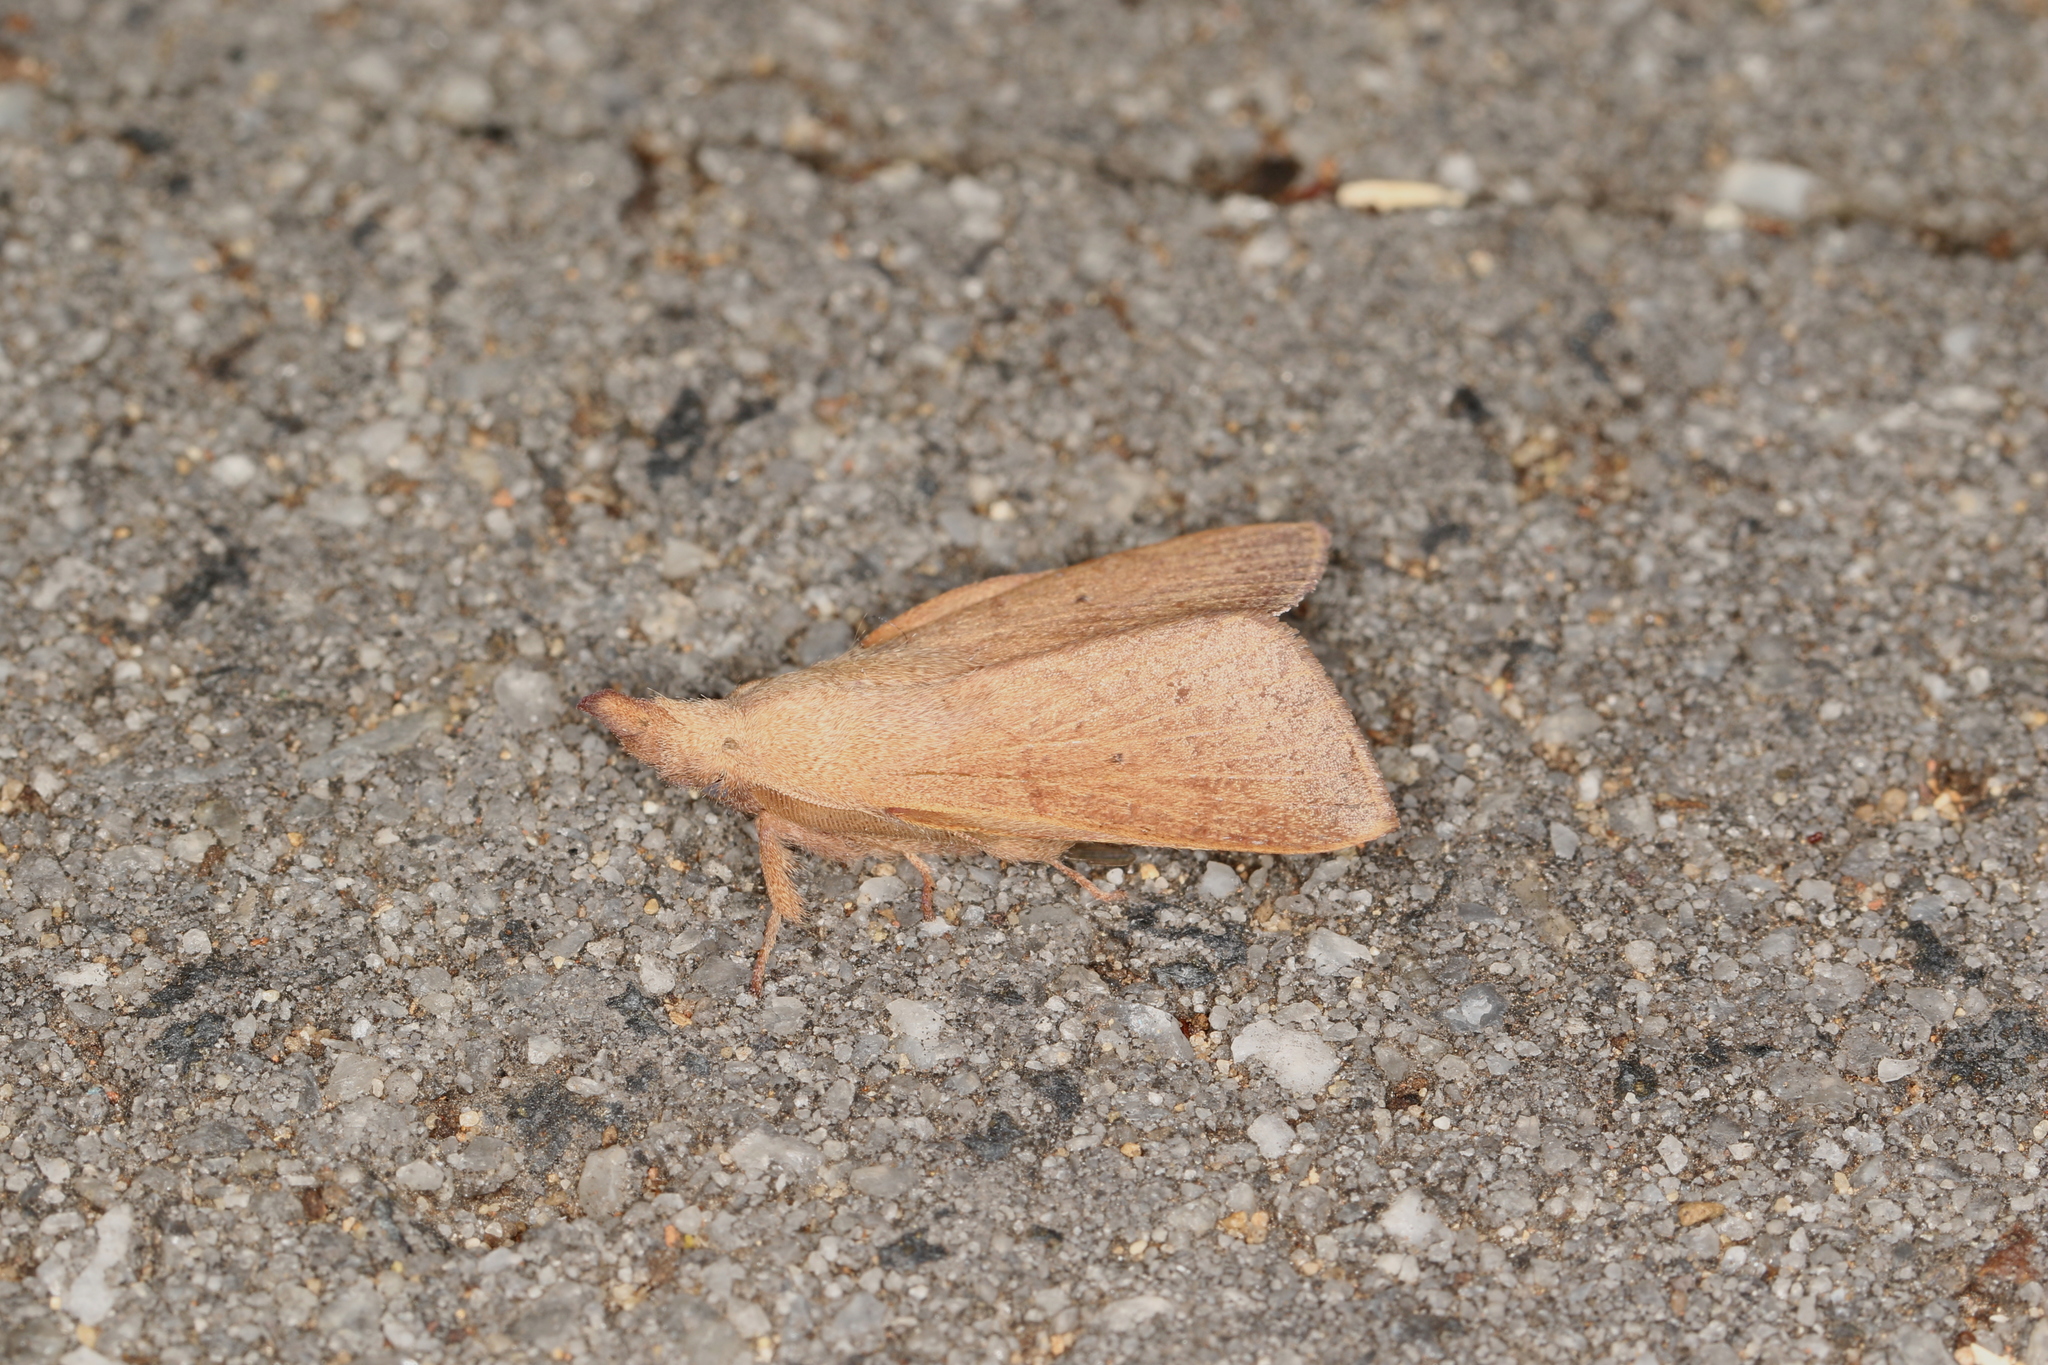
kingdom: Animalia
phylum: Arthropoda
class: Insecta
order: Lepidoptera
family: Lasiocampidae
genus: Pararguda
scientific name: Pararguda nasuta
